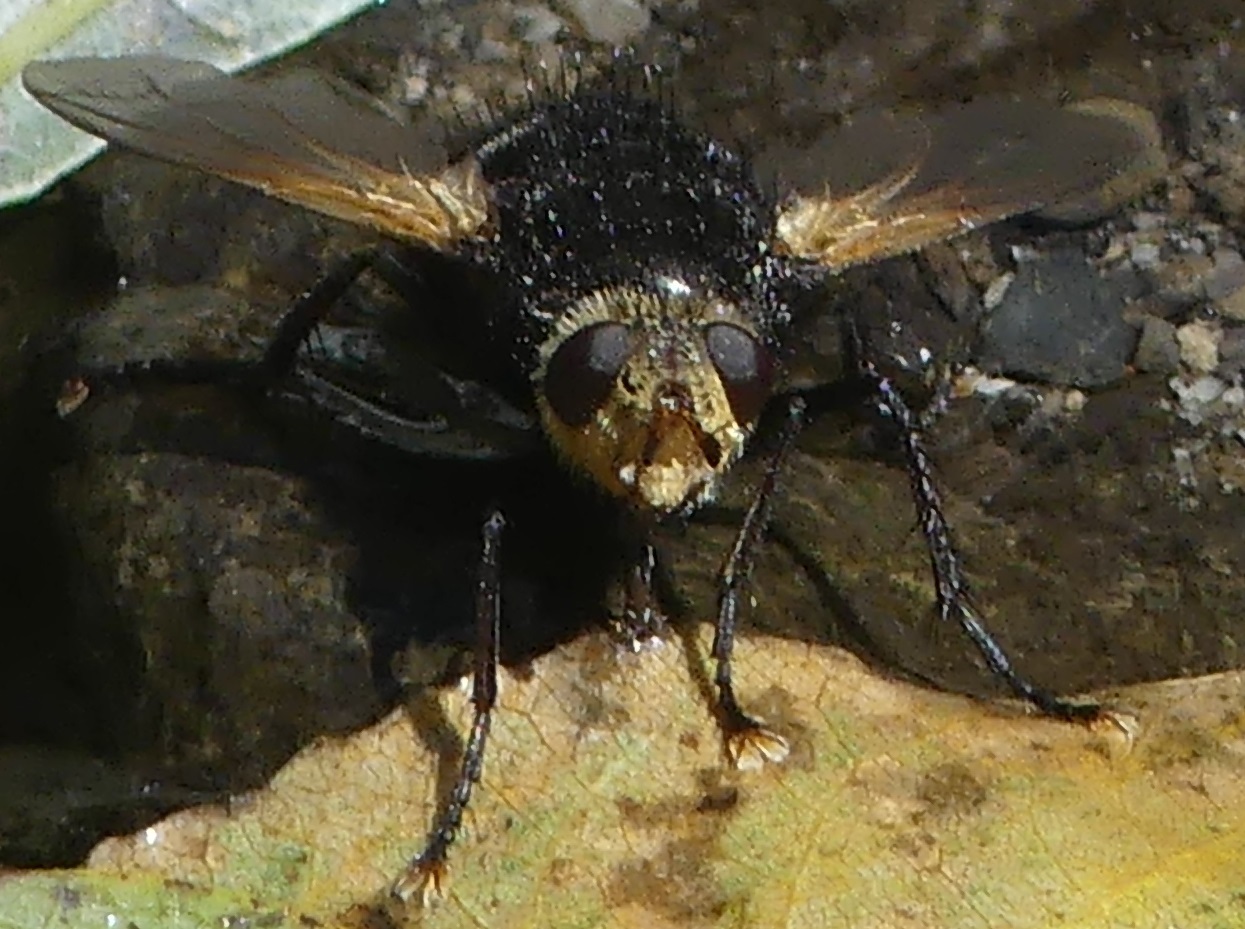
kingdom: Animalia
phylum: Arthropoda
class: Insecta
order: Diptera
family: Tachinidae
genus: Tachina
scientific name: Tachina grossa
